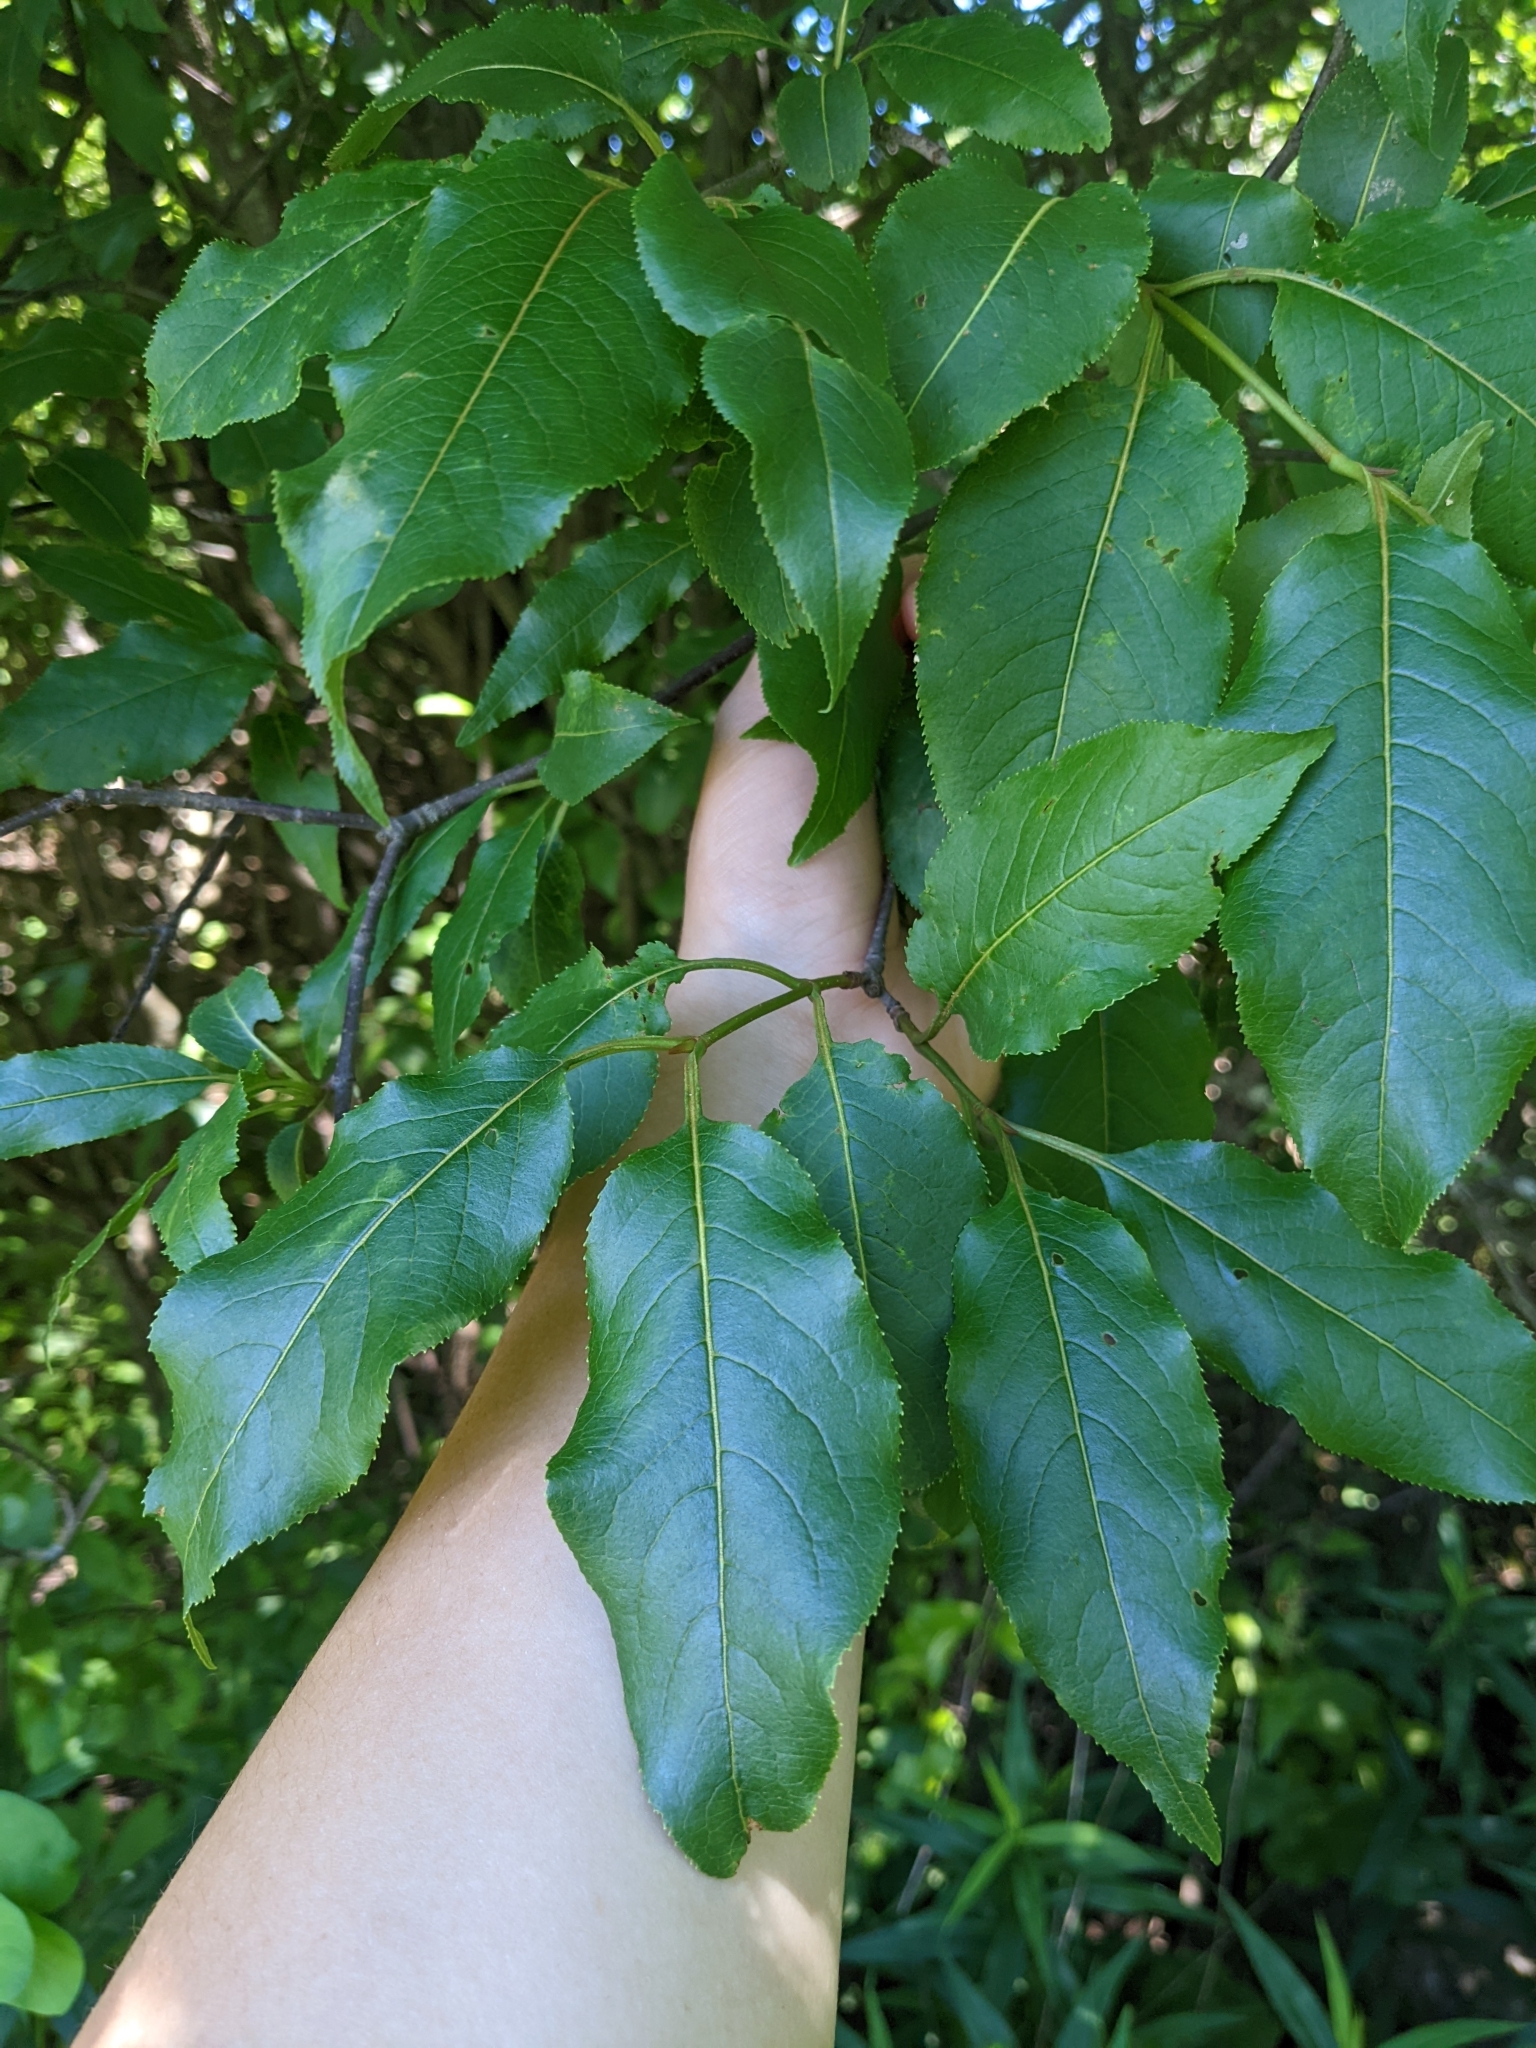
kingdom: Plantae
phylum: Tracheophyta
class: Magnoliopsida
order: Dipsacales
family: Viburnaceae
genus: Viburnum
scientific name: Viburnum lentago
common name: Black haw
